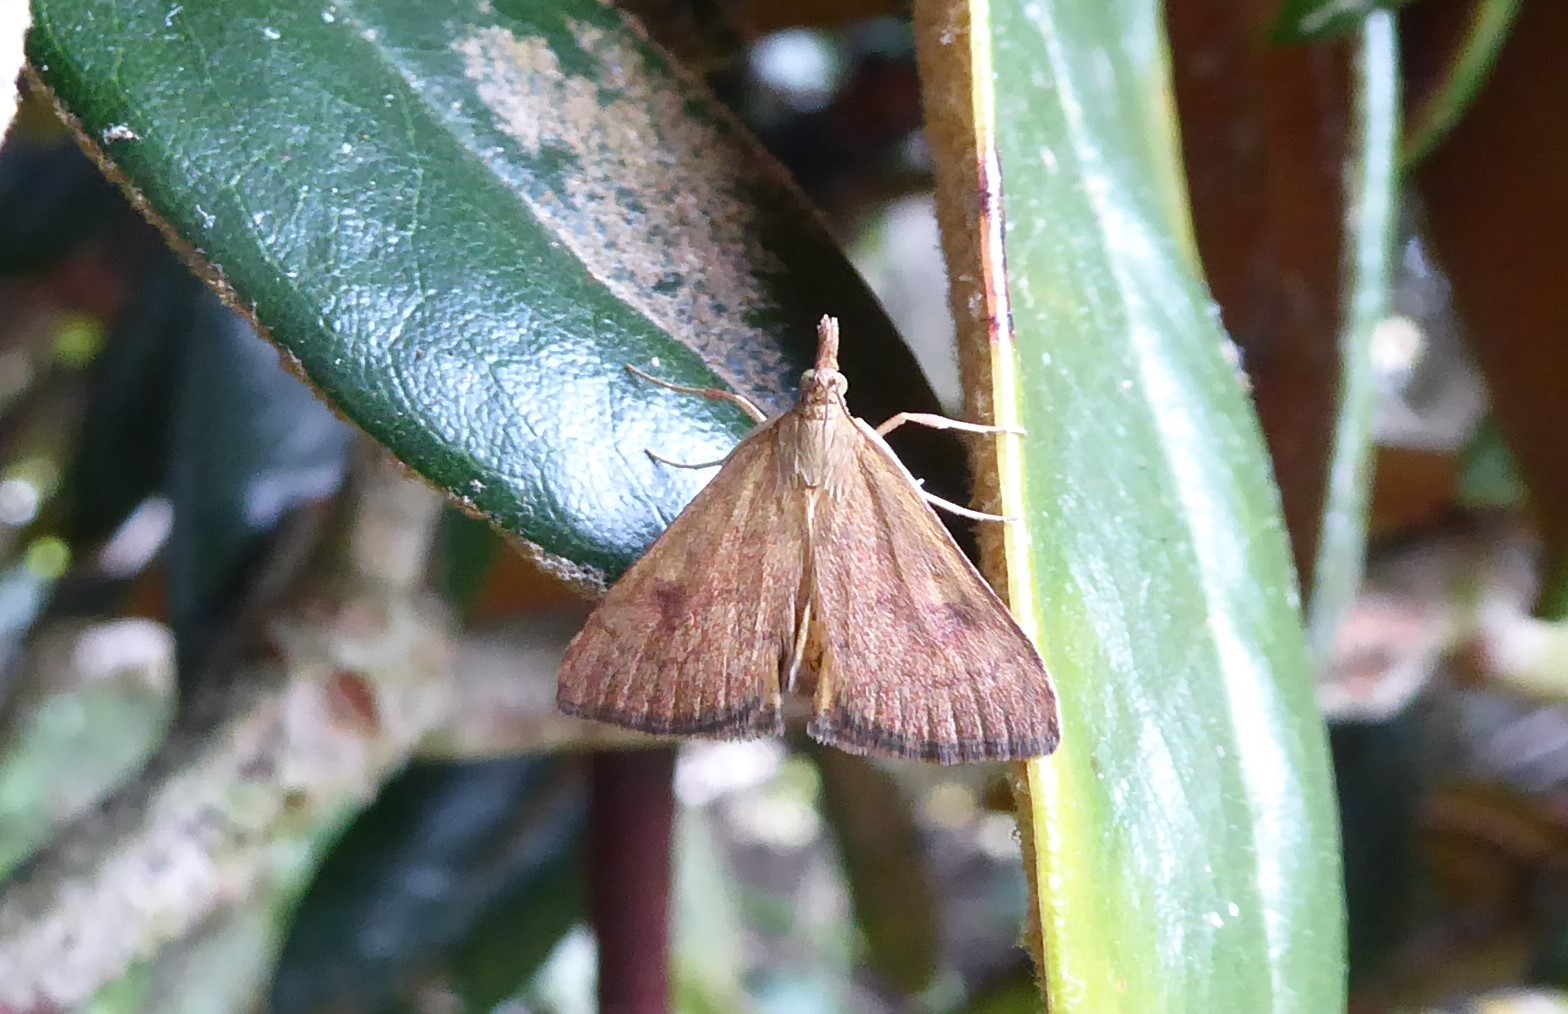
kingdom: Animalia
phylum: Arthropoda
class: Insecta
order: Lepidoptera
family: Crambidae
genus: Udea
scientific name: Udea Mnesictena flavidalis
